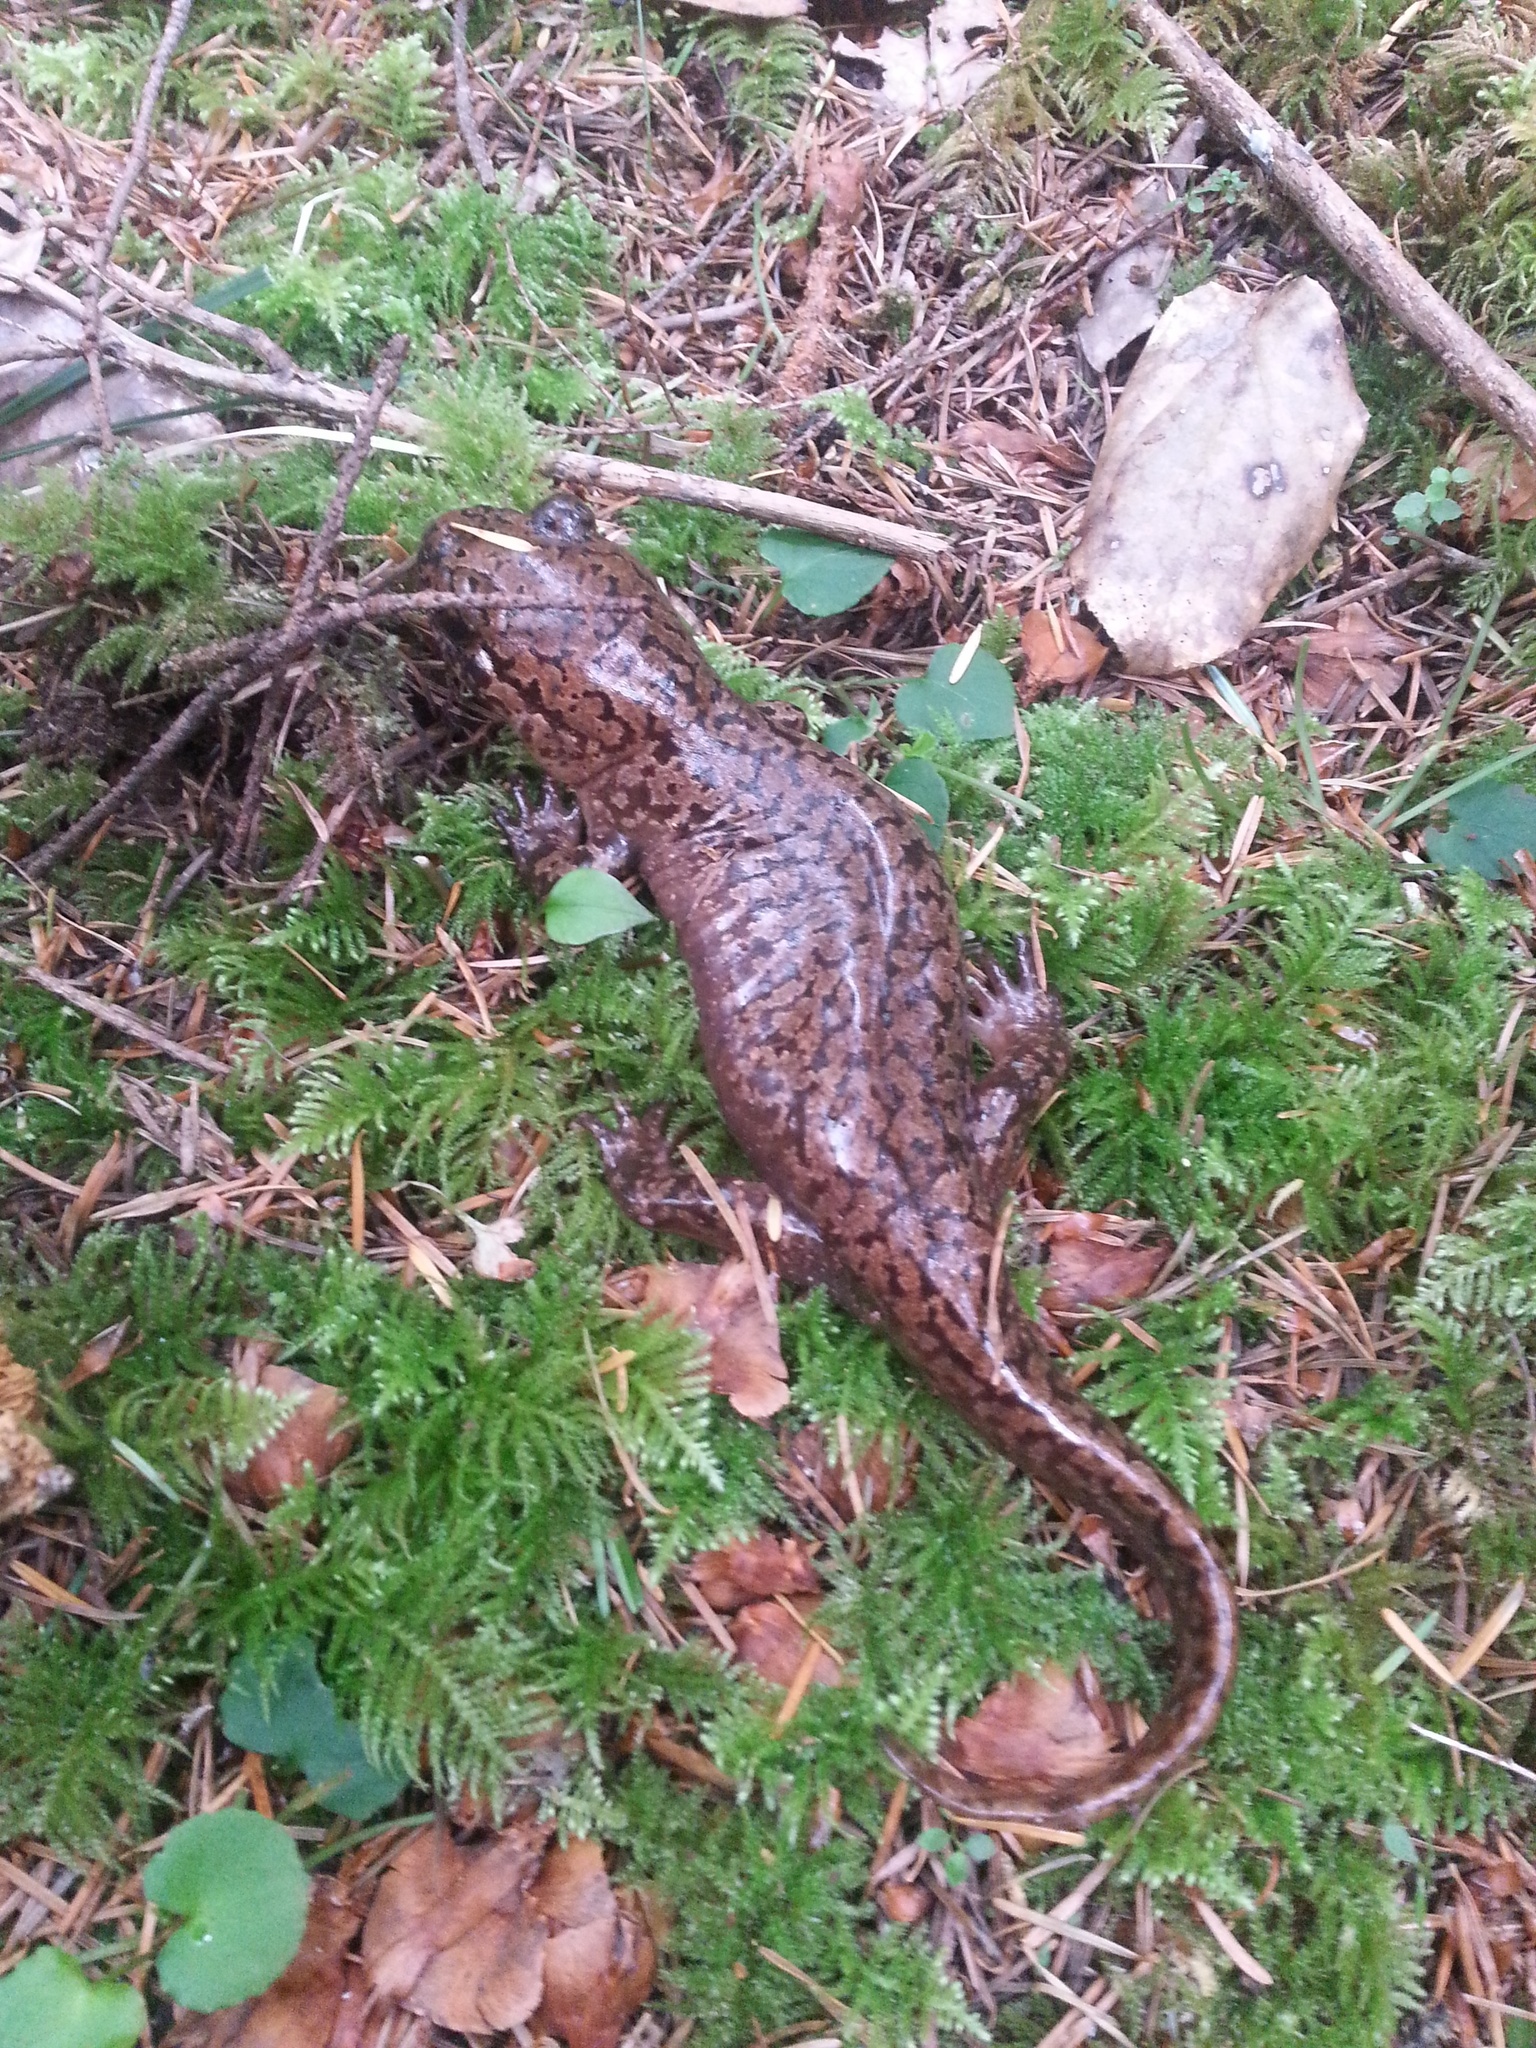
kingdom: Animalia
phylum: Chordata
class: Amphibia
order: Caudata
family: Ambystomatidae
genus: Dicamptodon
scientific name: Dicamptodon tenebrosus
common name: Coastal giant salamander
